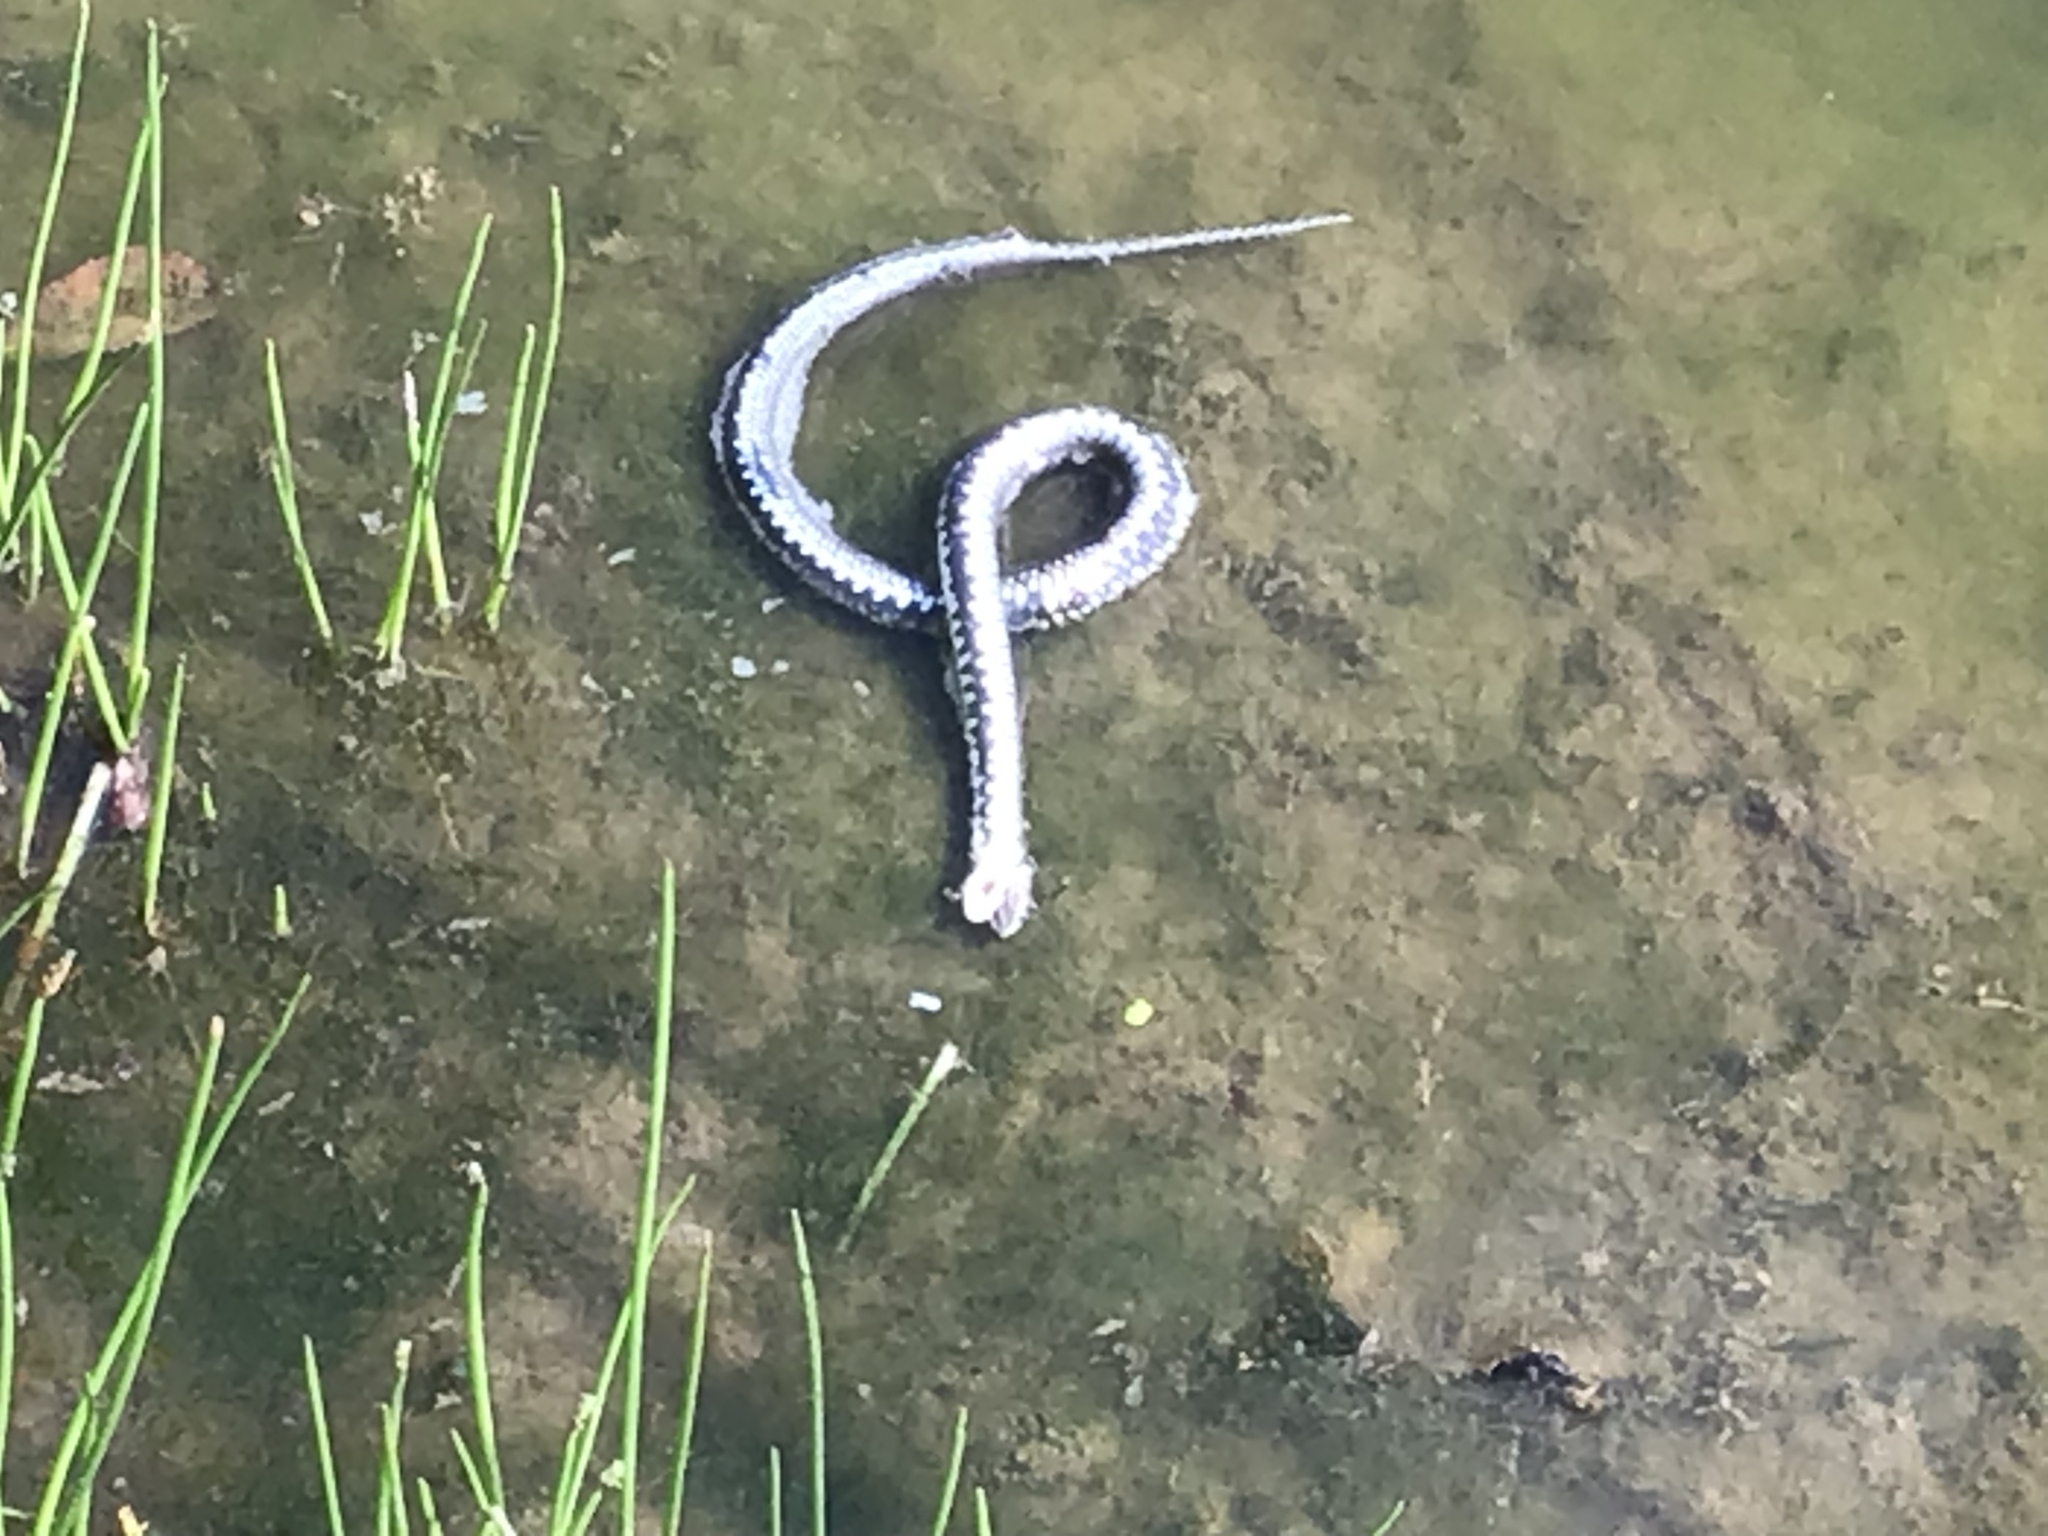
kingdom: Animalia
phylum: Chordata
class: Squamata
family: Colubridae
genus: Natrix
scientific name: Natrix natrix
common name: Grass snake
